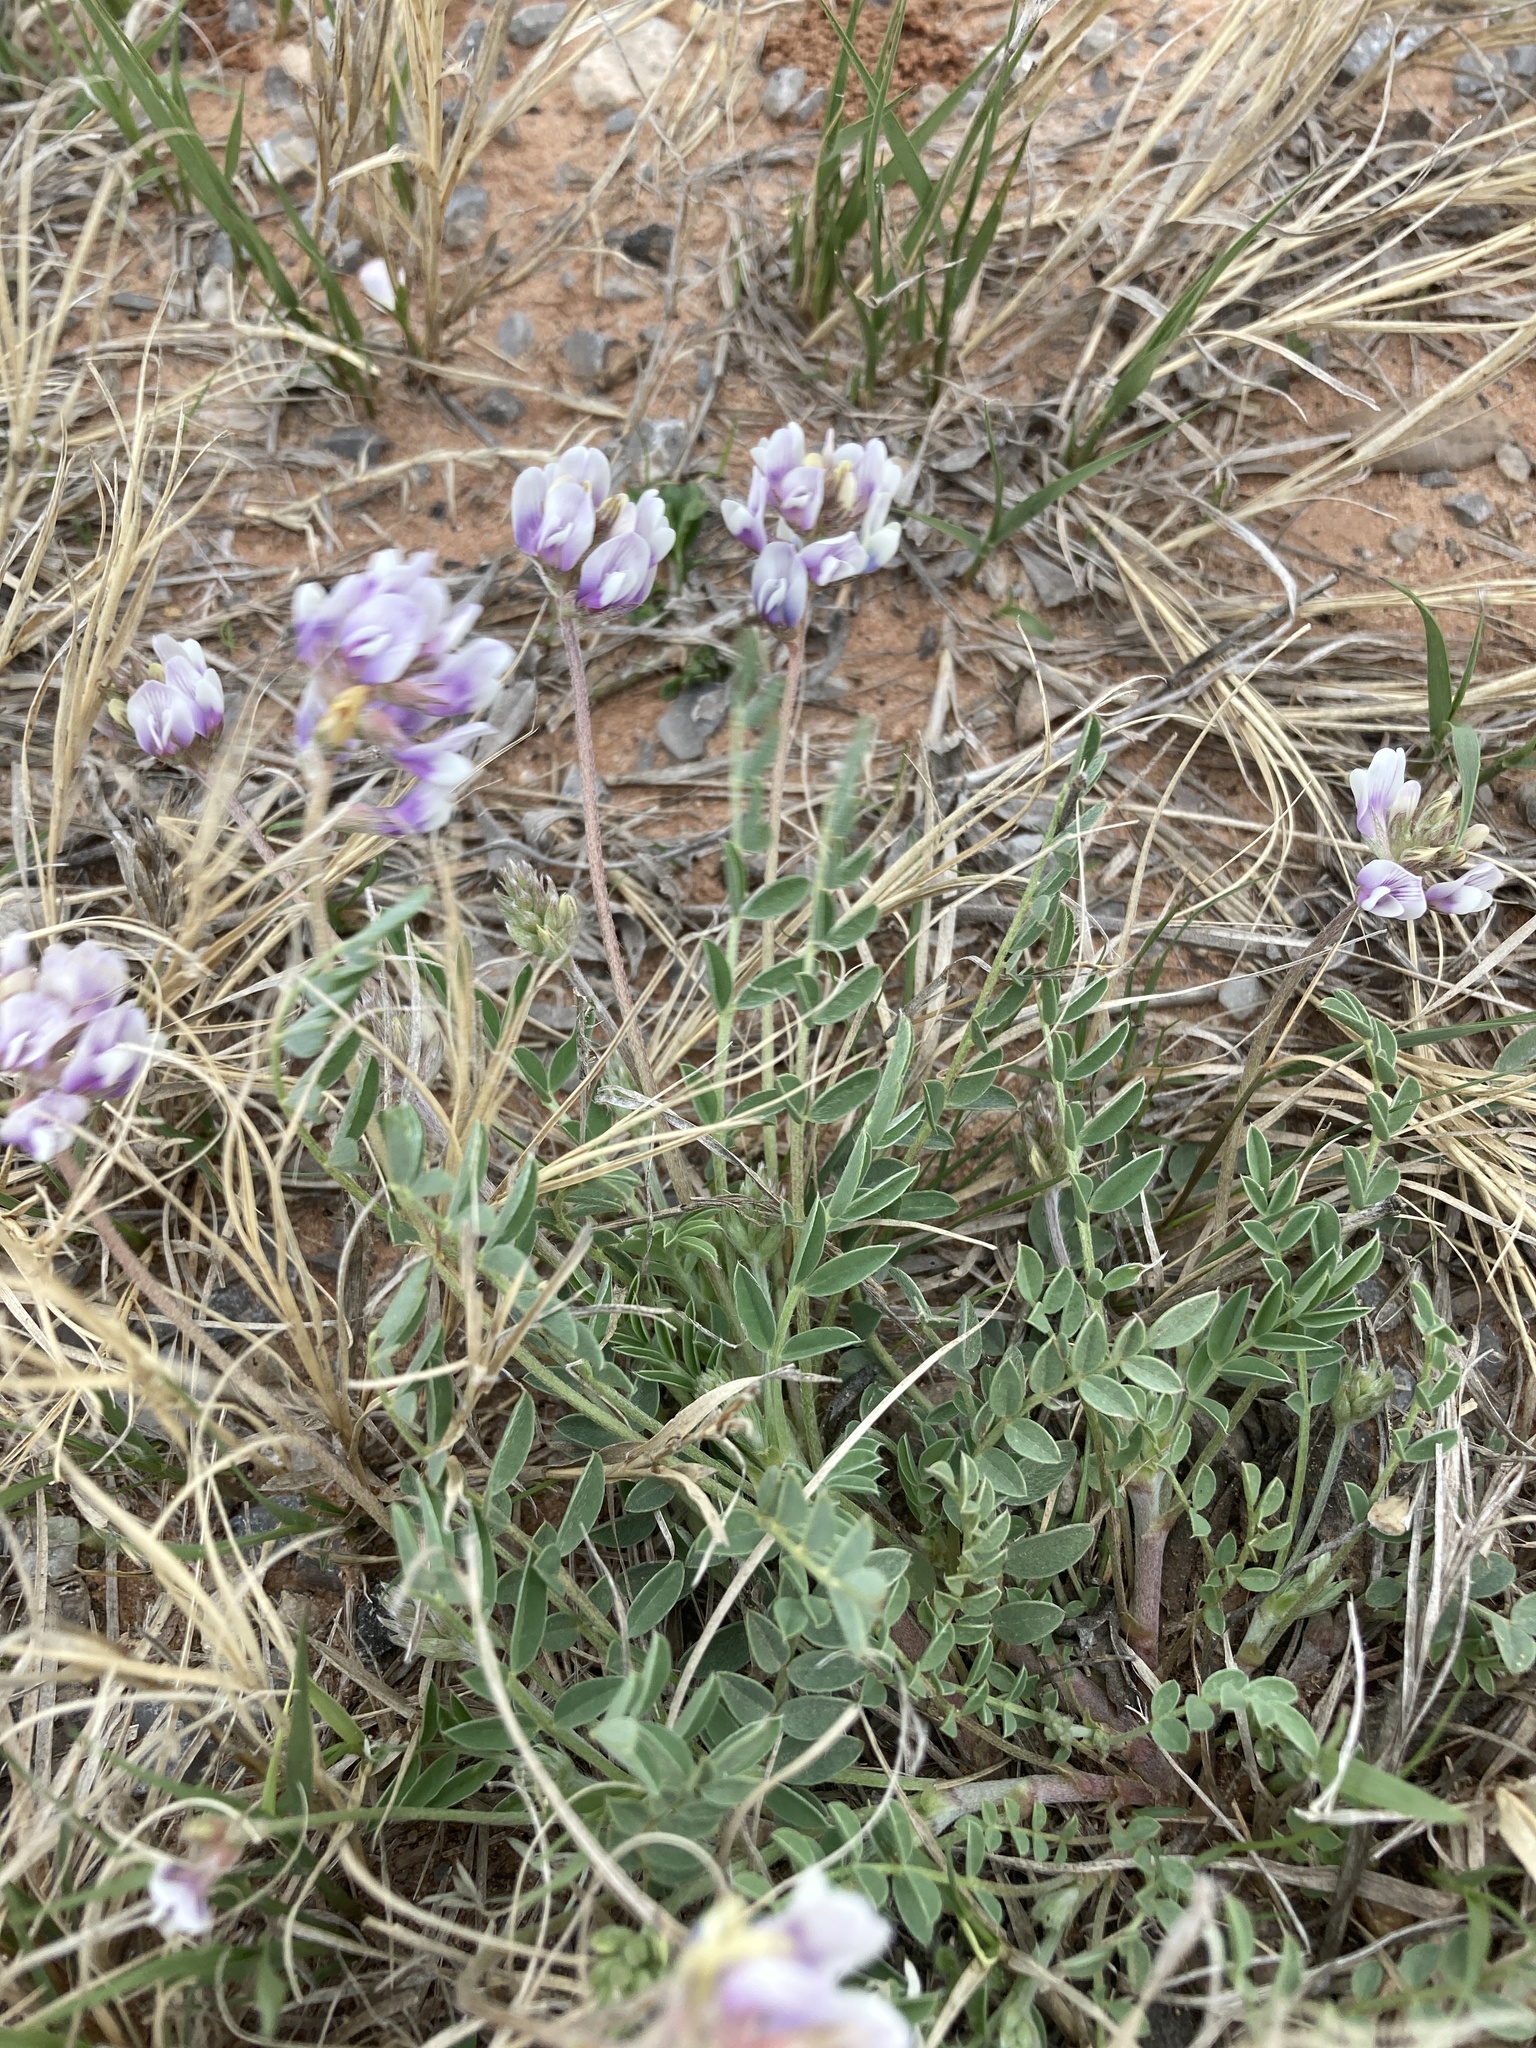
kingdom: Plantae
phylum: Tracheophyta
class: Magnoliopsida
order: Fabales
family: Fabaceae
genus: Astragalus
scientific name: Astragalus lotiflorus
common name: Lotus milk-vetch
